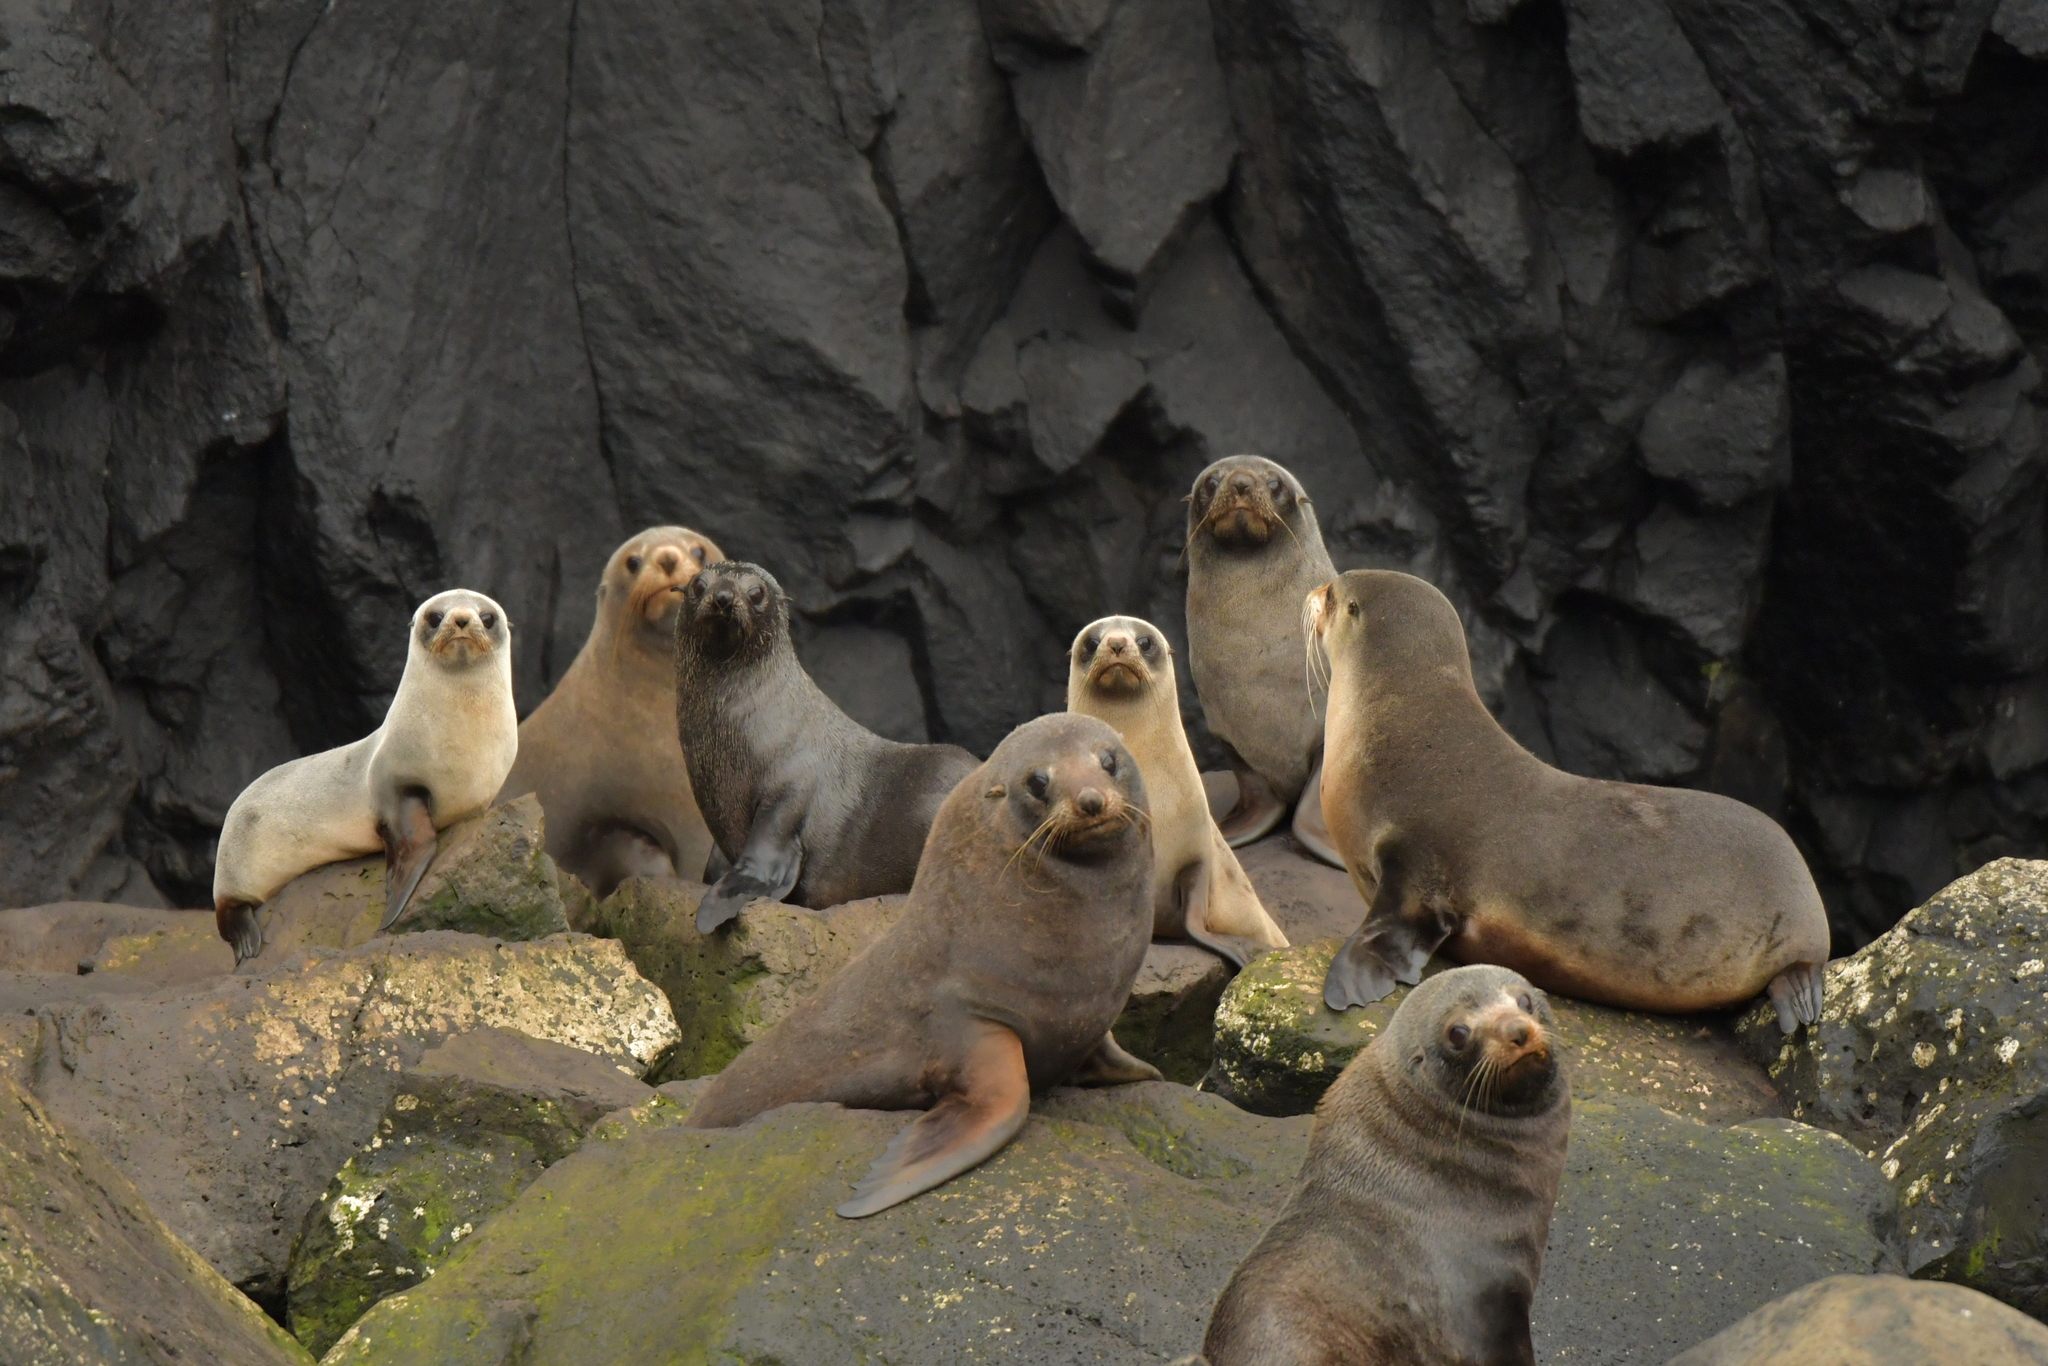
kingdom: Animalia
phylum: Chordata
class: Mammalia
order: Carnivora
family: Otariidae
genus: Arctocephalus
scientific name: Arctocephalus tropicalis
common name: Subantarctic fur seal
